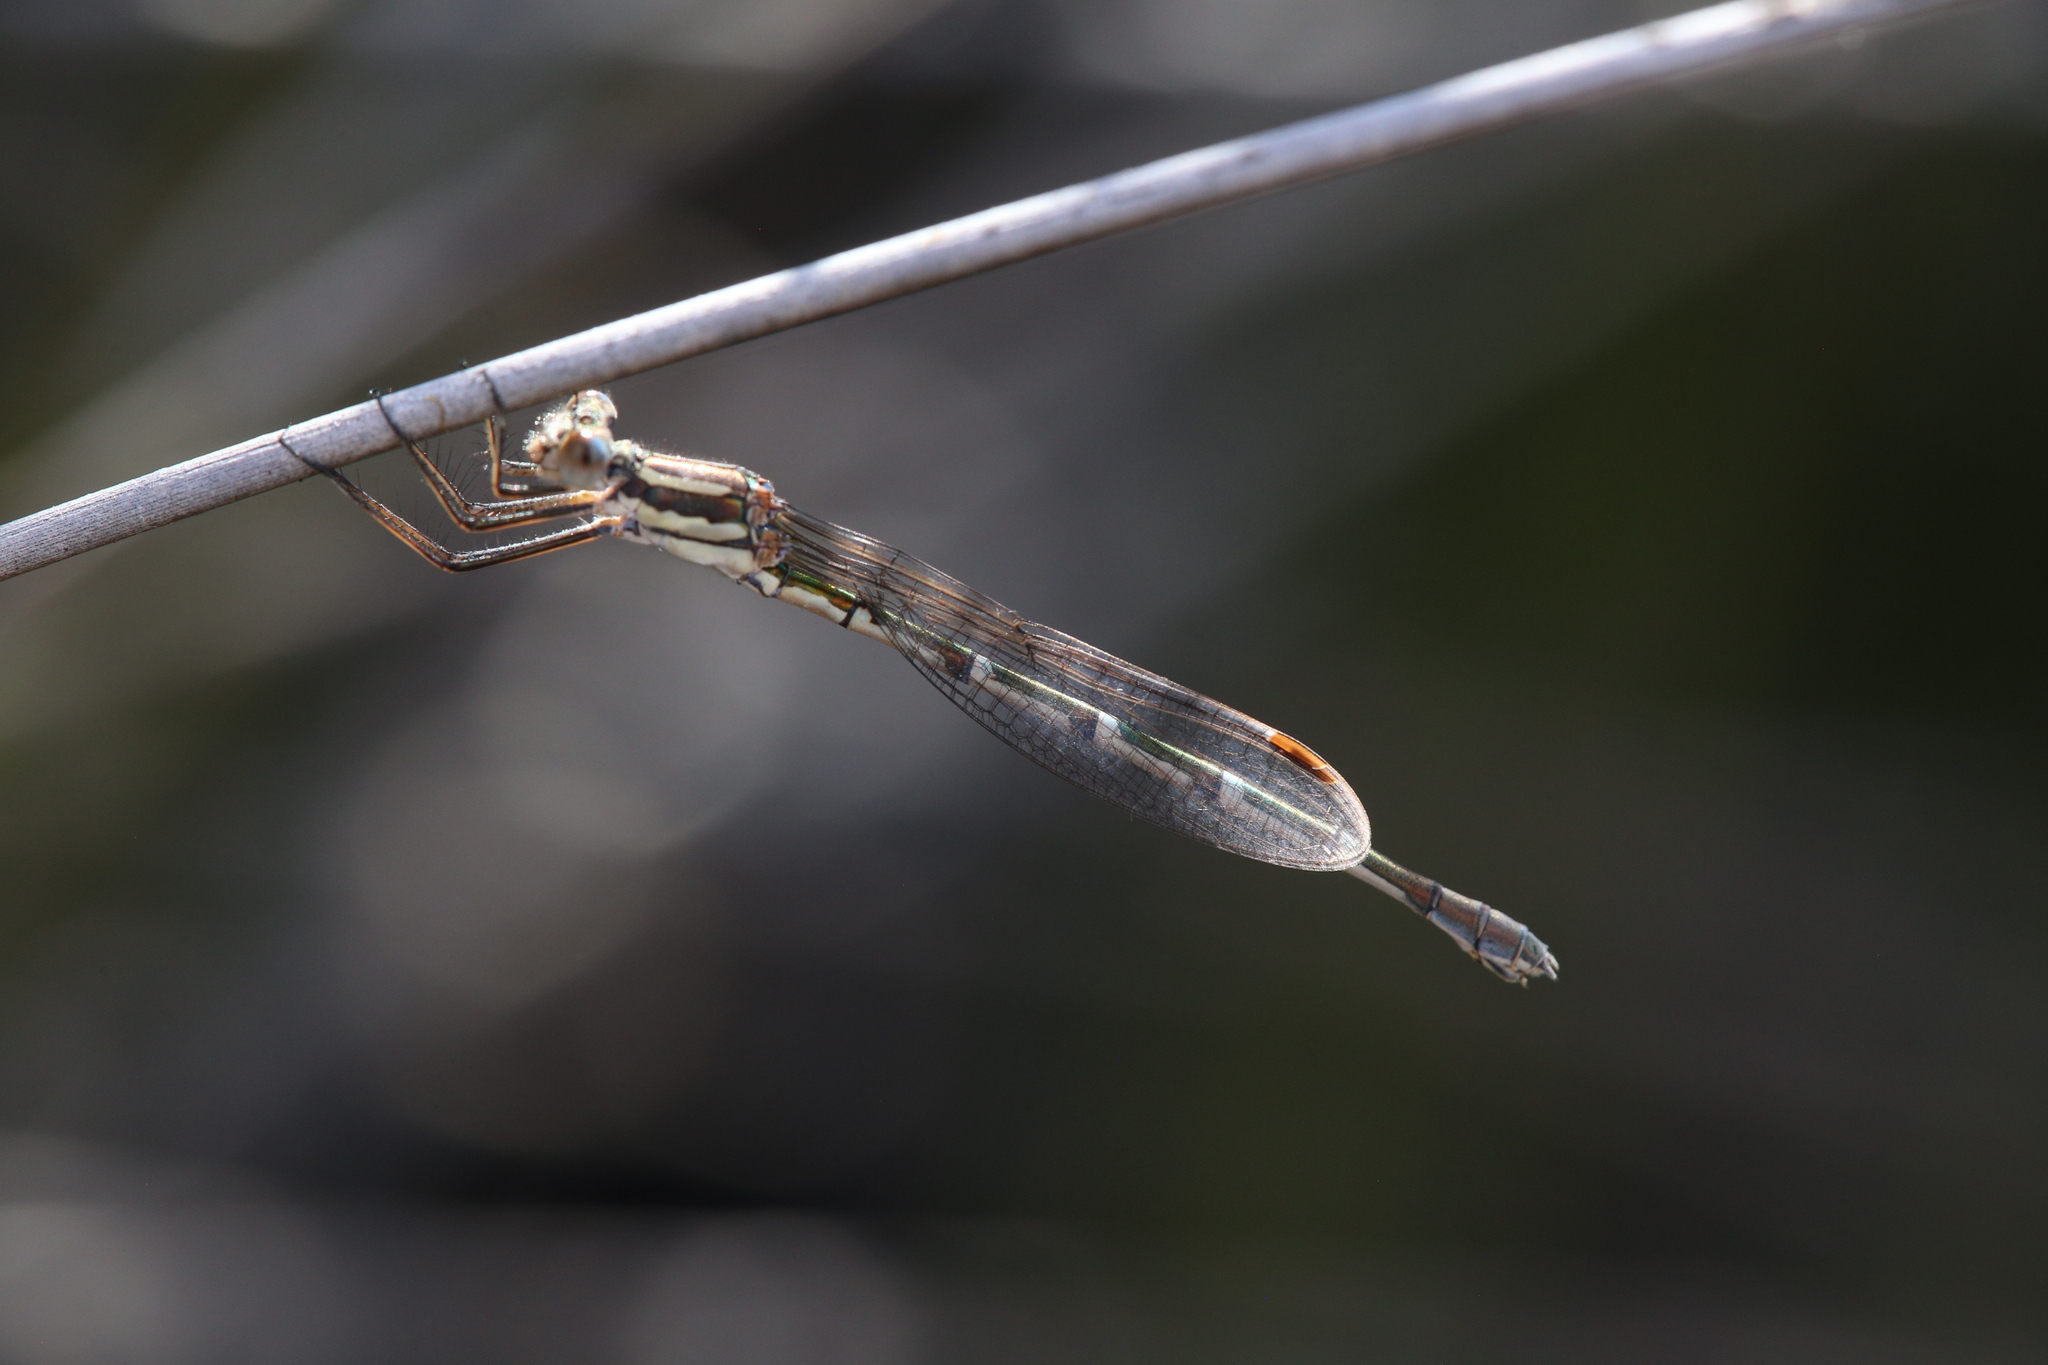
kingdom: Animalia
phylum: Arthropoda
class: Insecta
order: Odonata
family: Lestidae
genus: Austrolestes
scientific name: Austrolestes annulosus
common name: Blue ringtail
